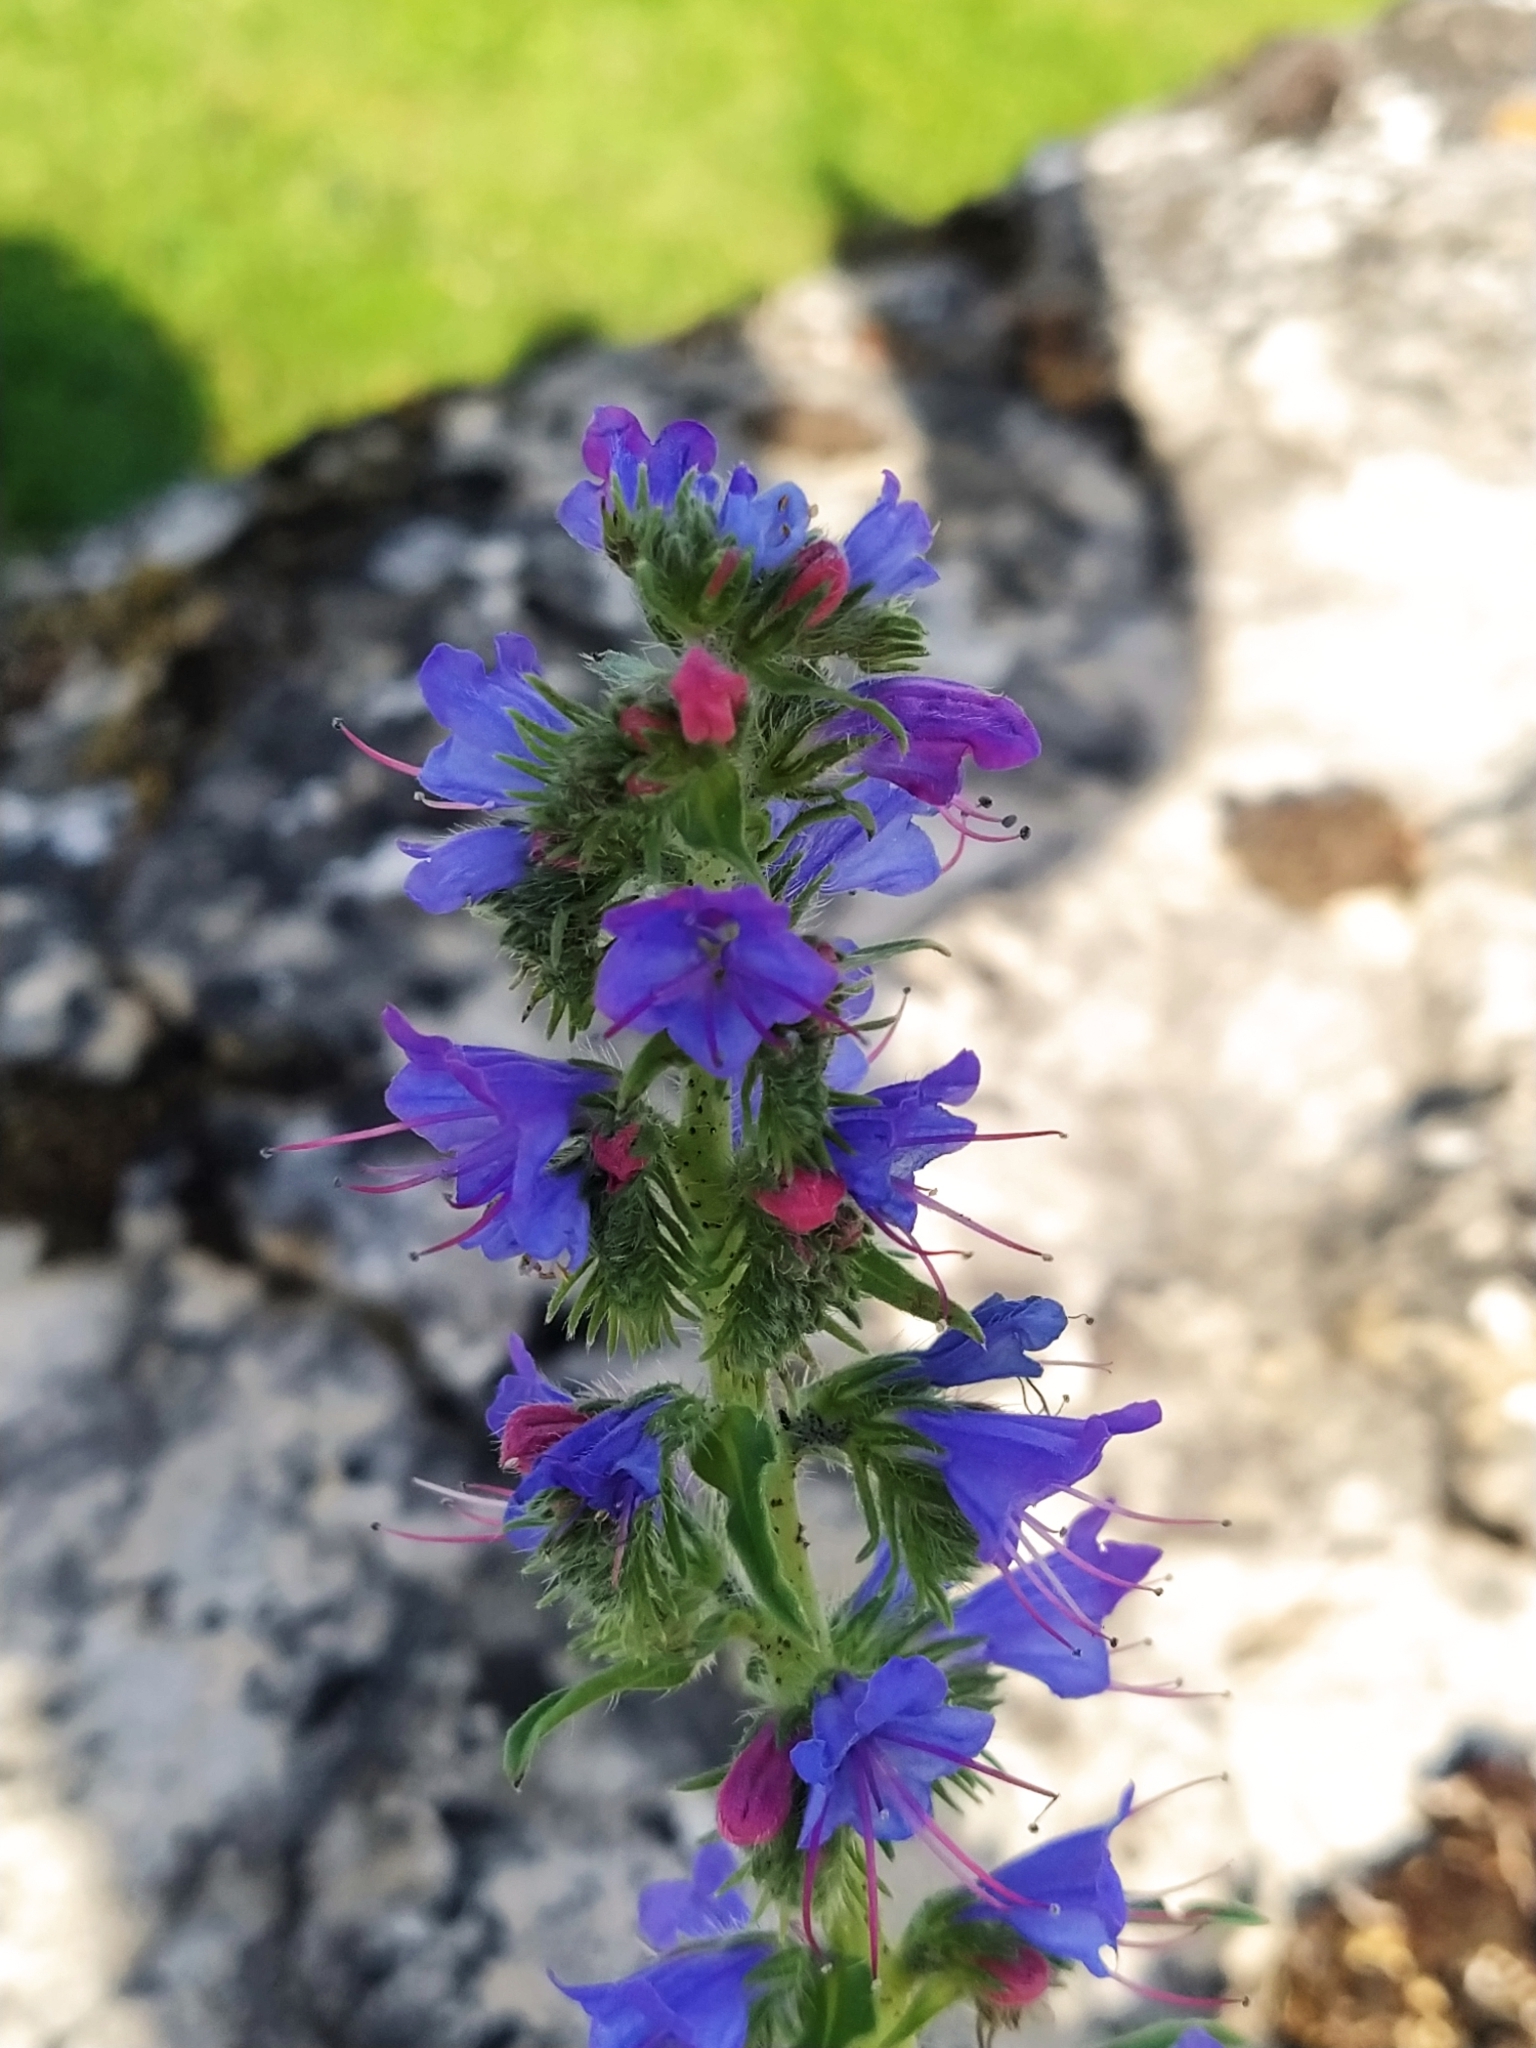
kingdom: Plantae
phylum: Tracheophyta
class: Magnoliopsida
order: Boraginales
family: Boraginaceae
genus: Echium
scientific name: Echium vulgare
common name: Common viper's bugloss
